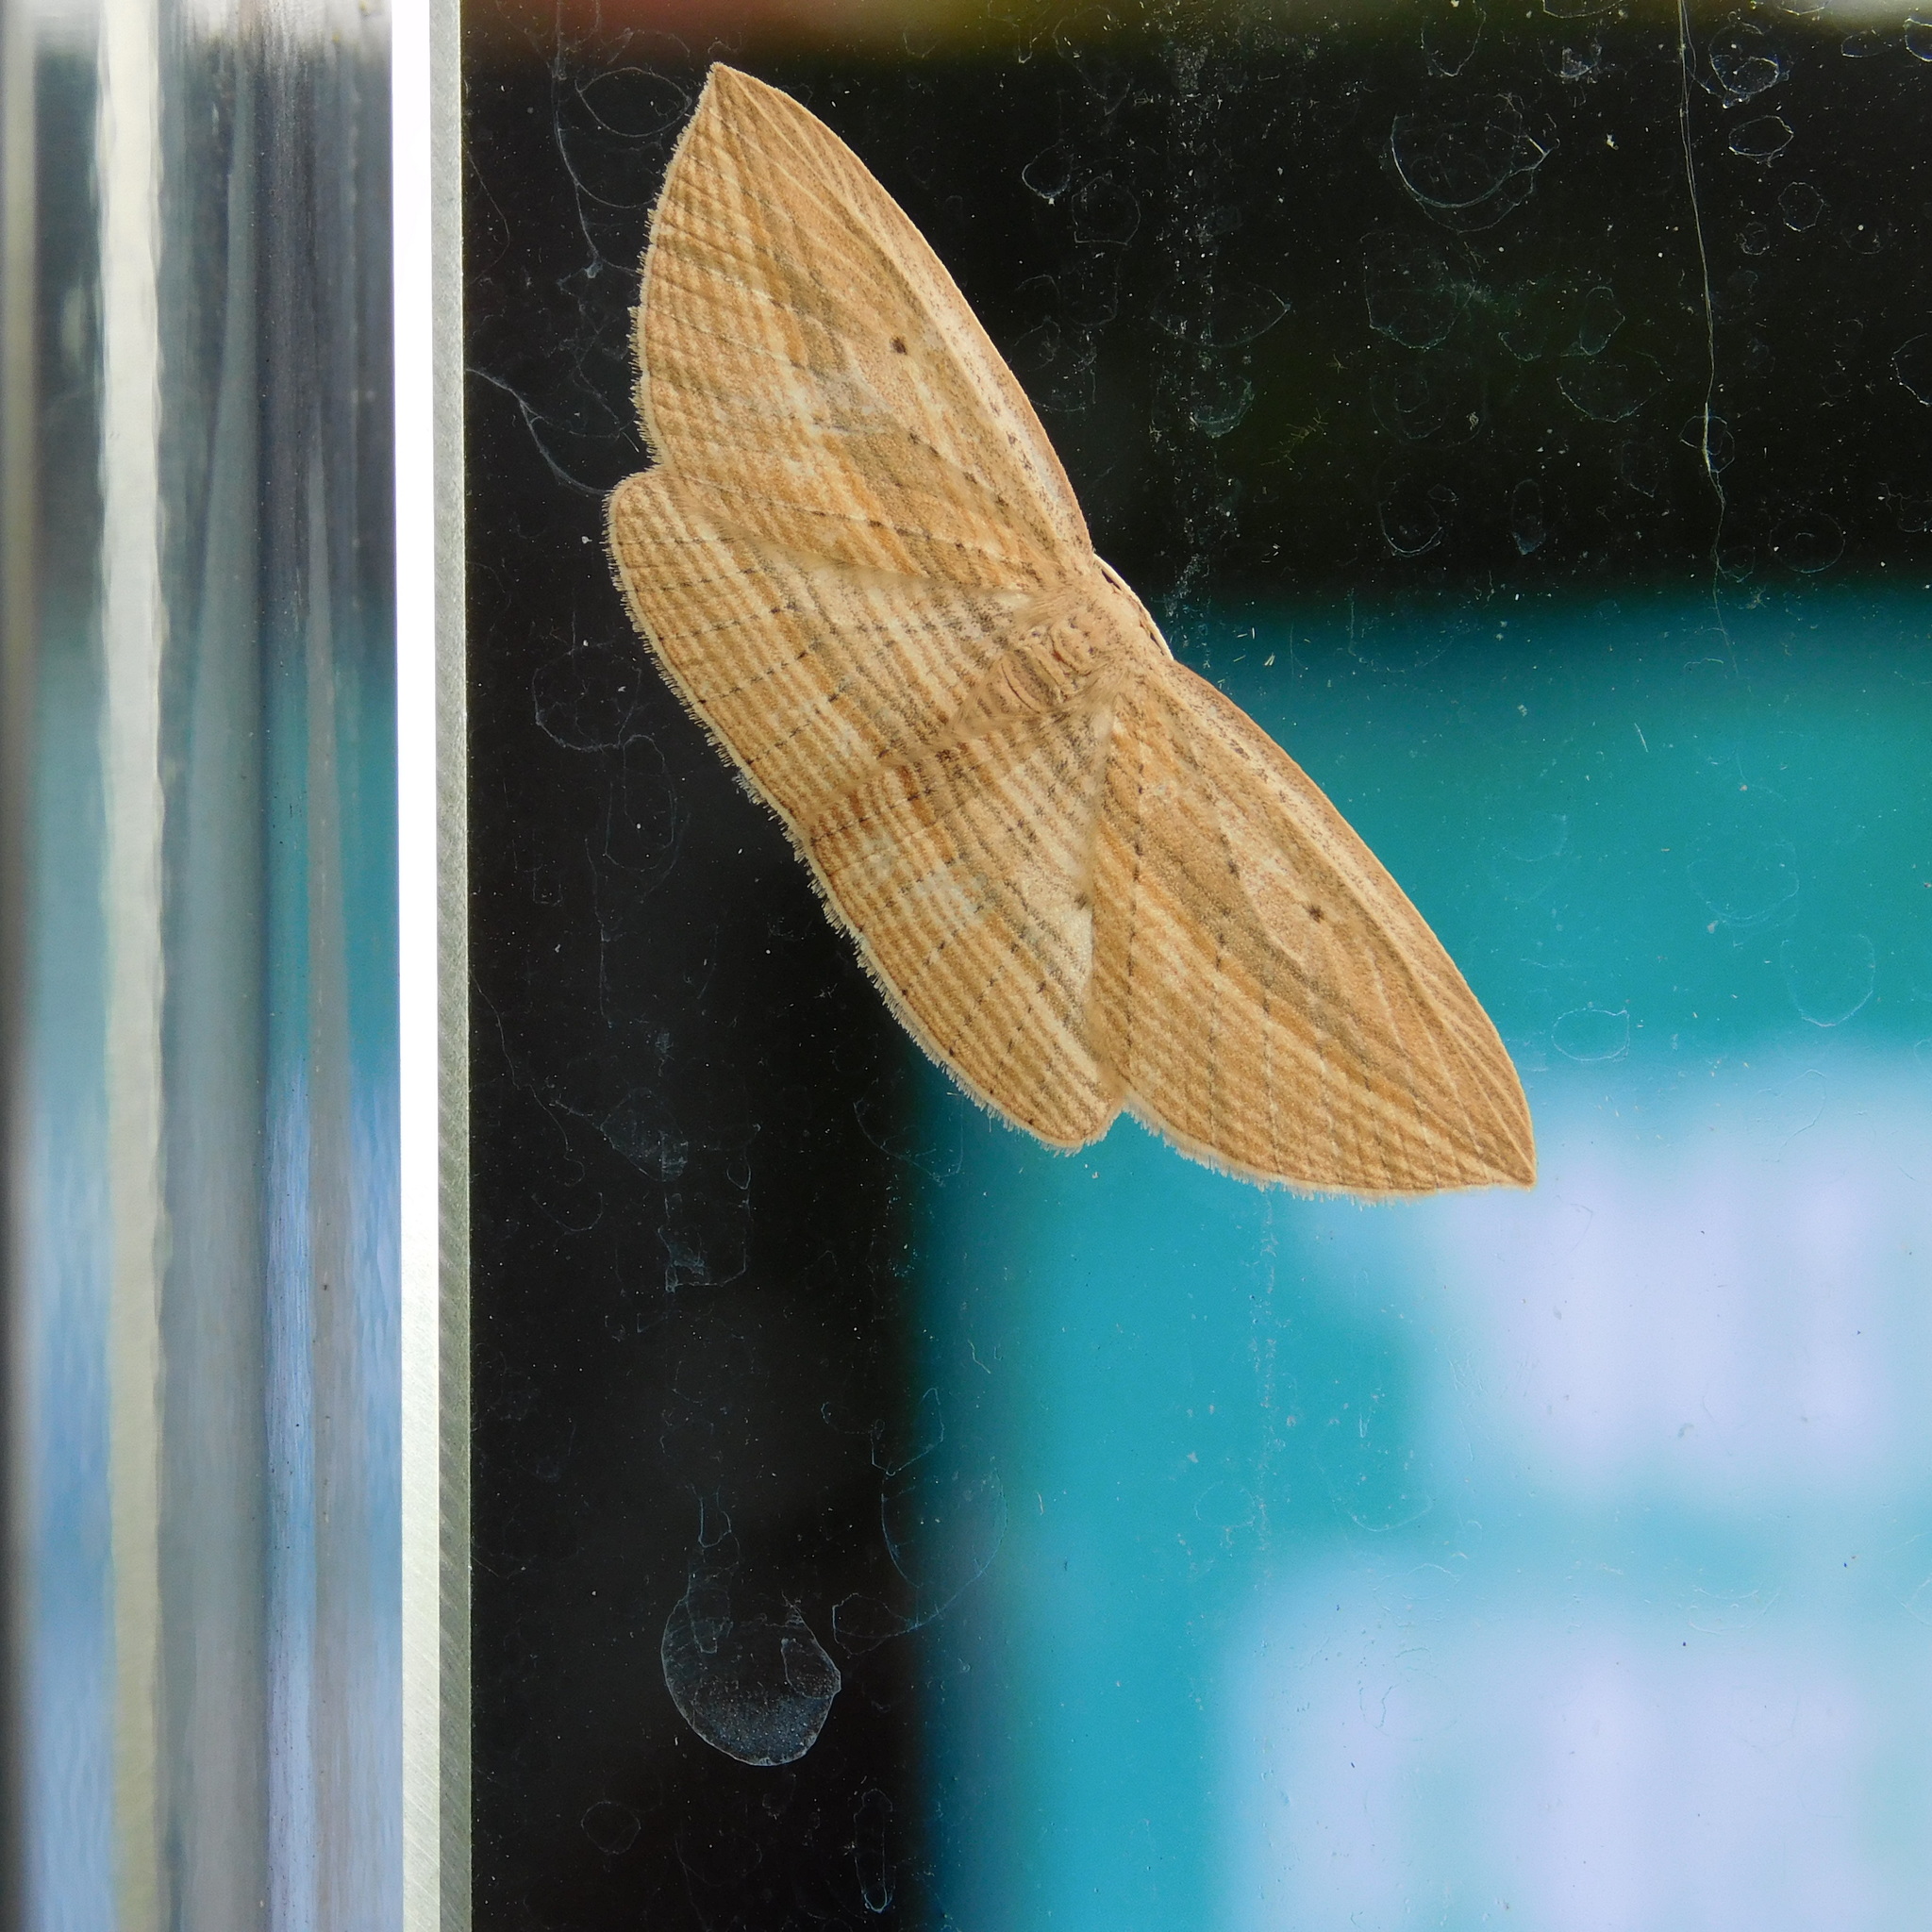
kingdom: Animalia
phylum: Arthropoda
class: Insecta
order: Lepidoptera
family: Geometridae
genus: Epiphryne
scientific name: Epiphryne verriculata
